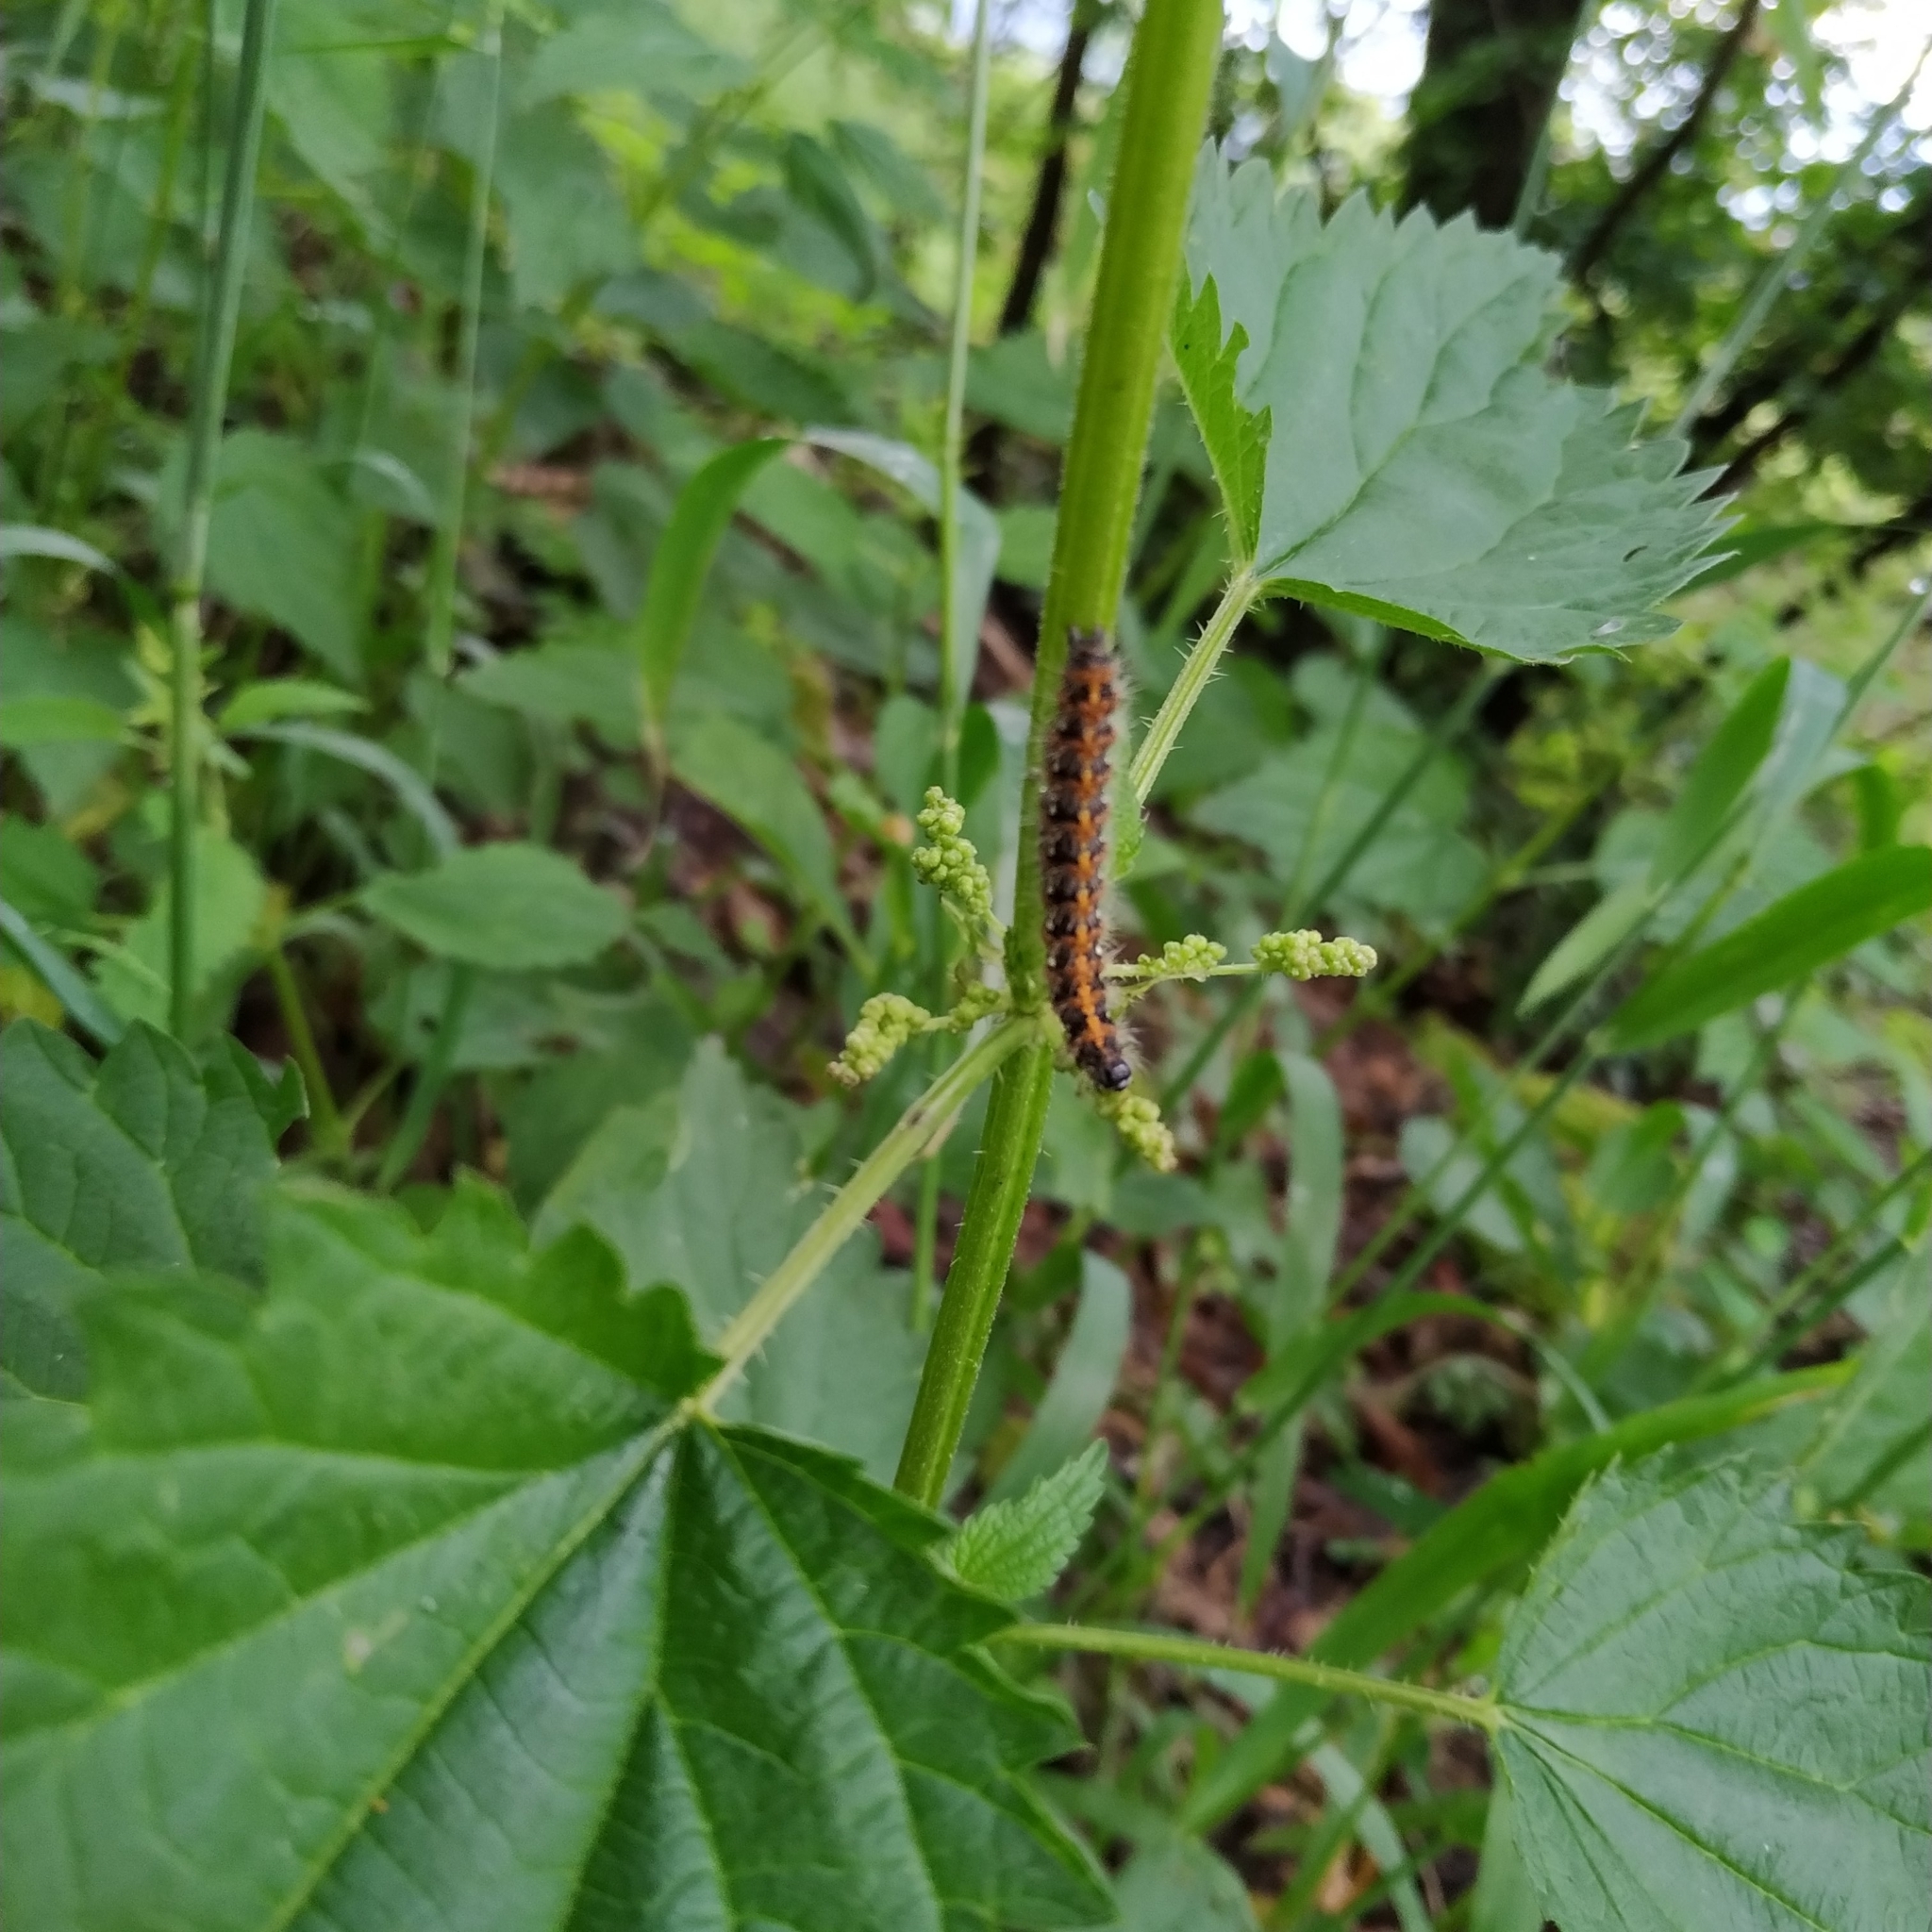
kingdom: Animalia
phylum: Arthropoda
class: Insecta
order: Lepidoptera
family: Erebidae
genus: Euplagia
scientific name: Euplagia quadripunctaria
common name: Jersey tiger
